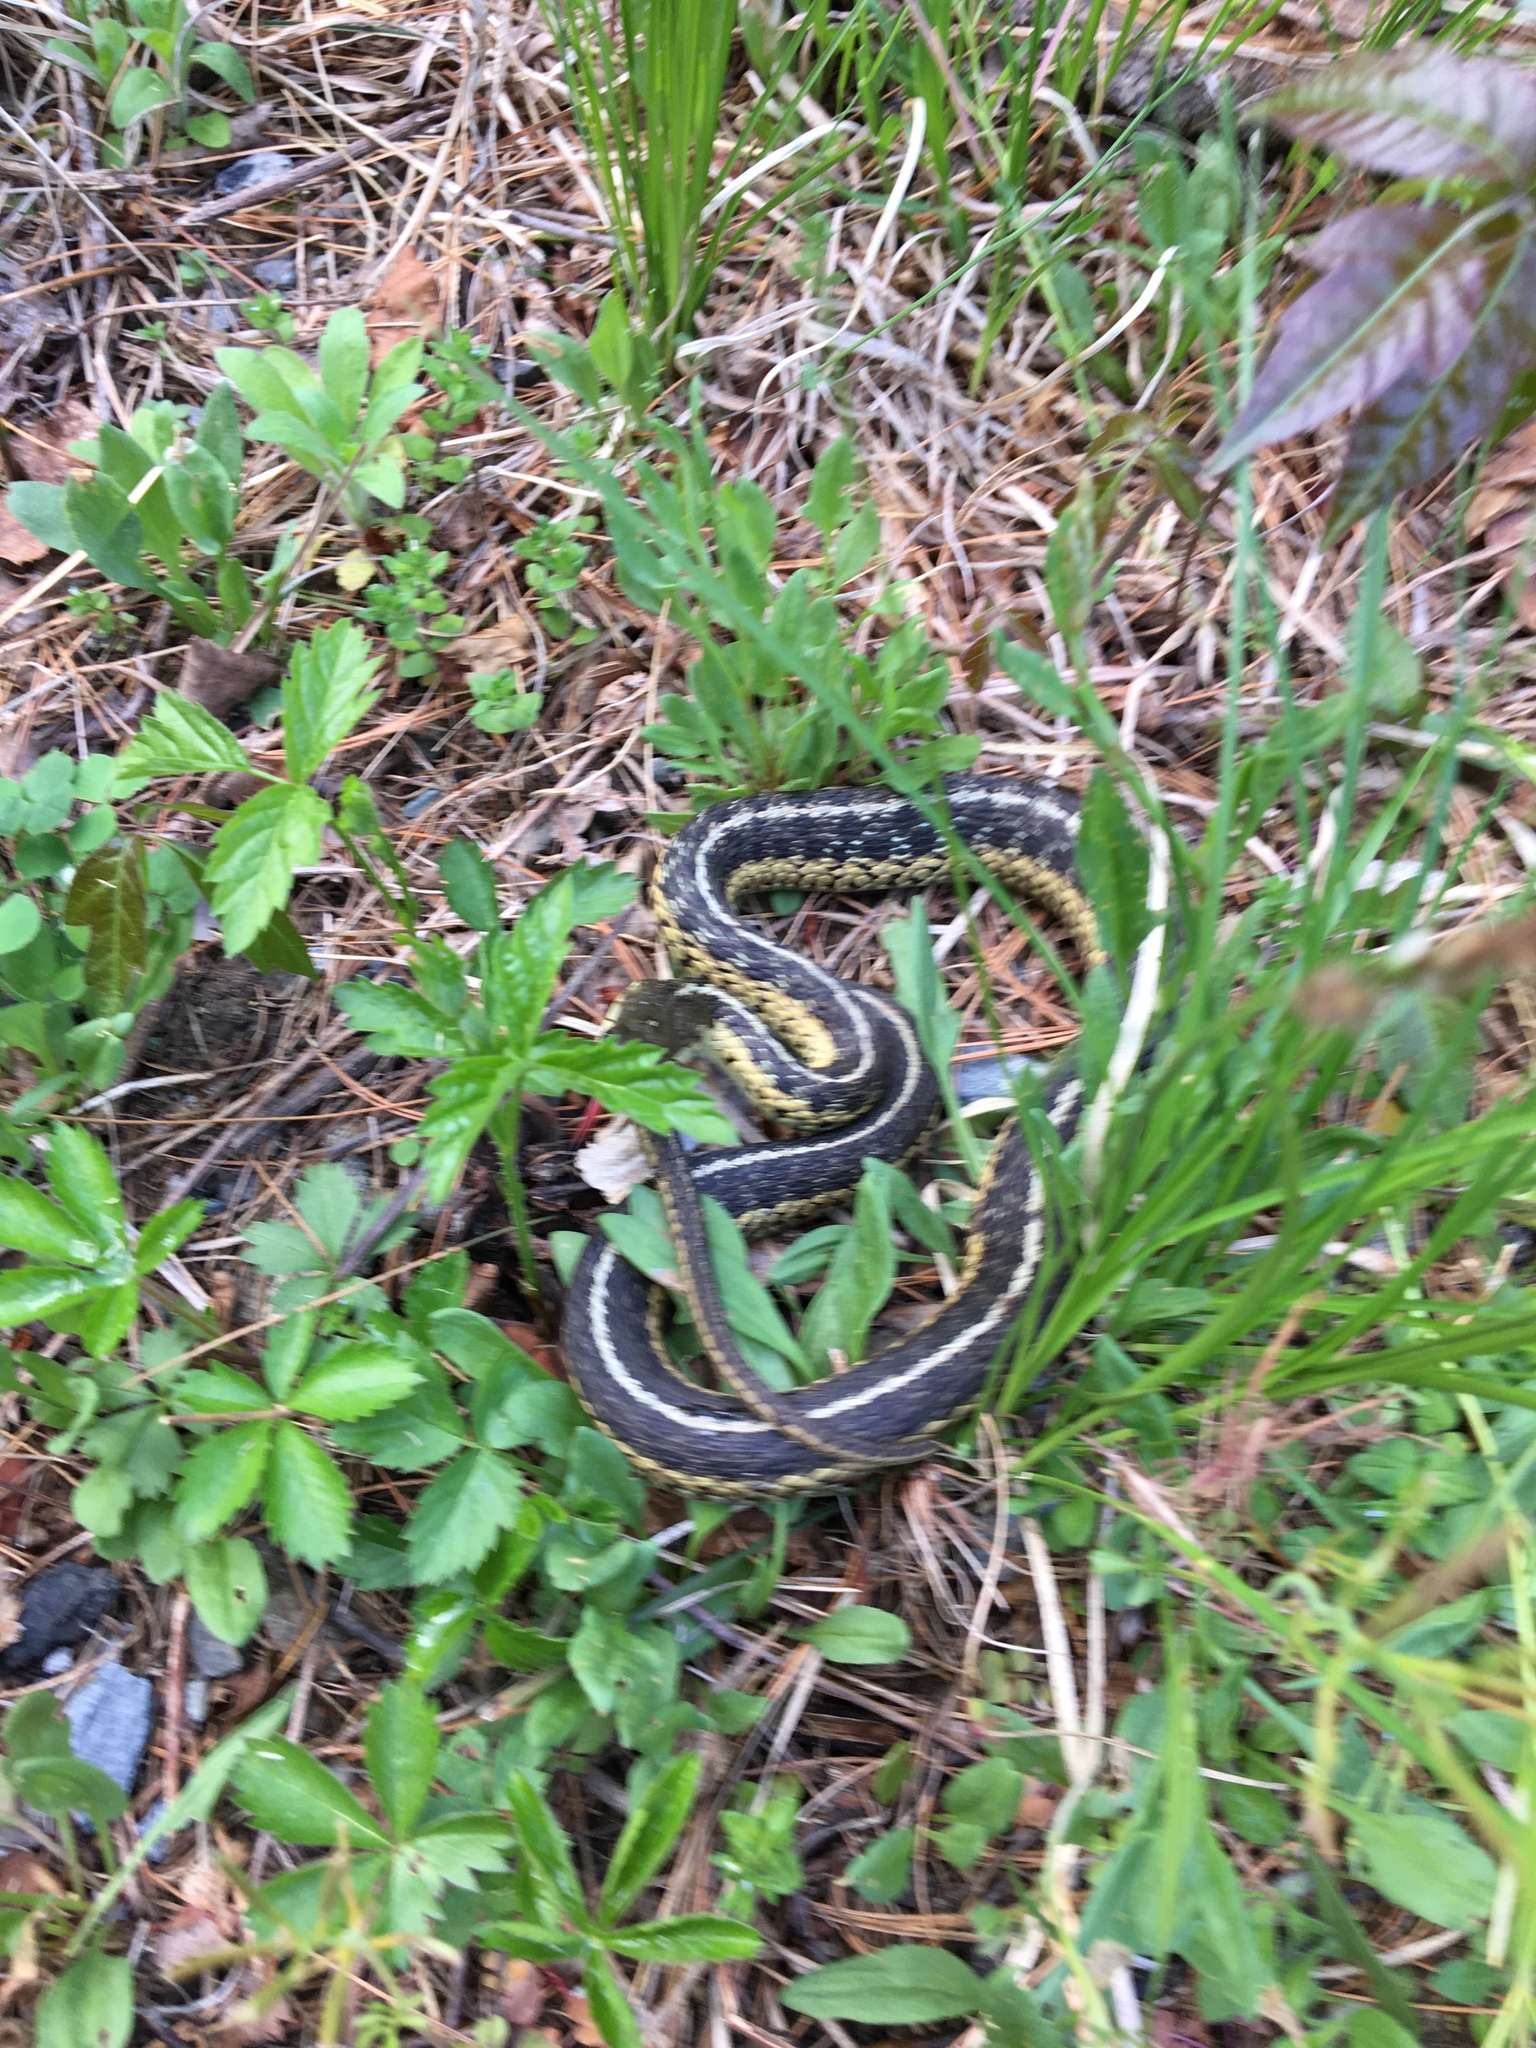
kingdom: Animalia
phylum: Chordata
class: Squamata
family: Colubridae
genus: Thamnophis
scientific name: Thamnophis sirtalis
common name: Common garter snake
